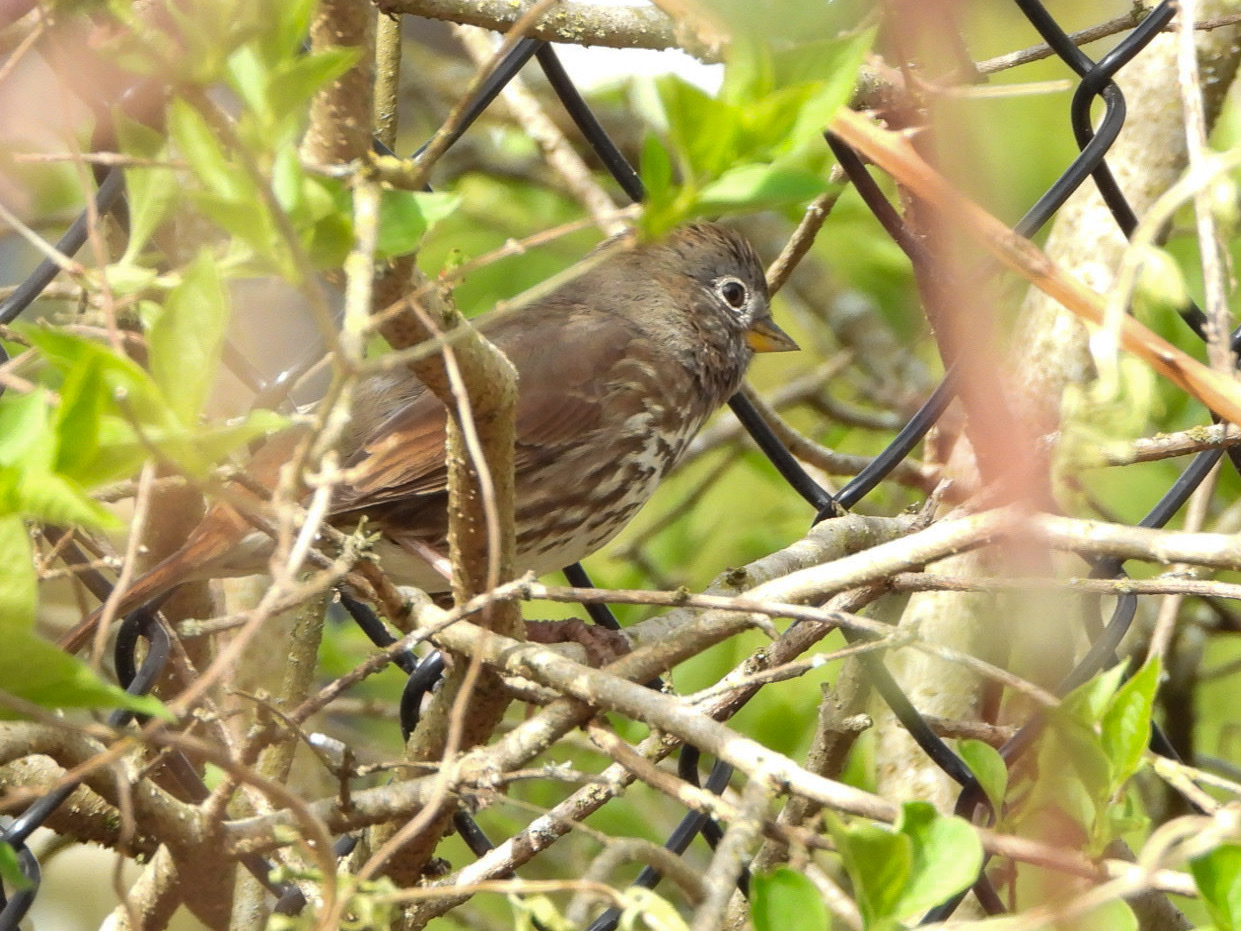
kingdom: Animalia
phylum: Chordata
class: Aves
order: Passeriformes
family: Passerellidae
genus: Passerella
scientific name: Passerella iliaca
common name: Fox sparrow
